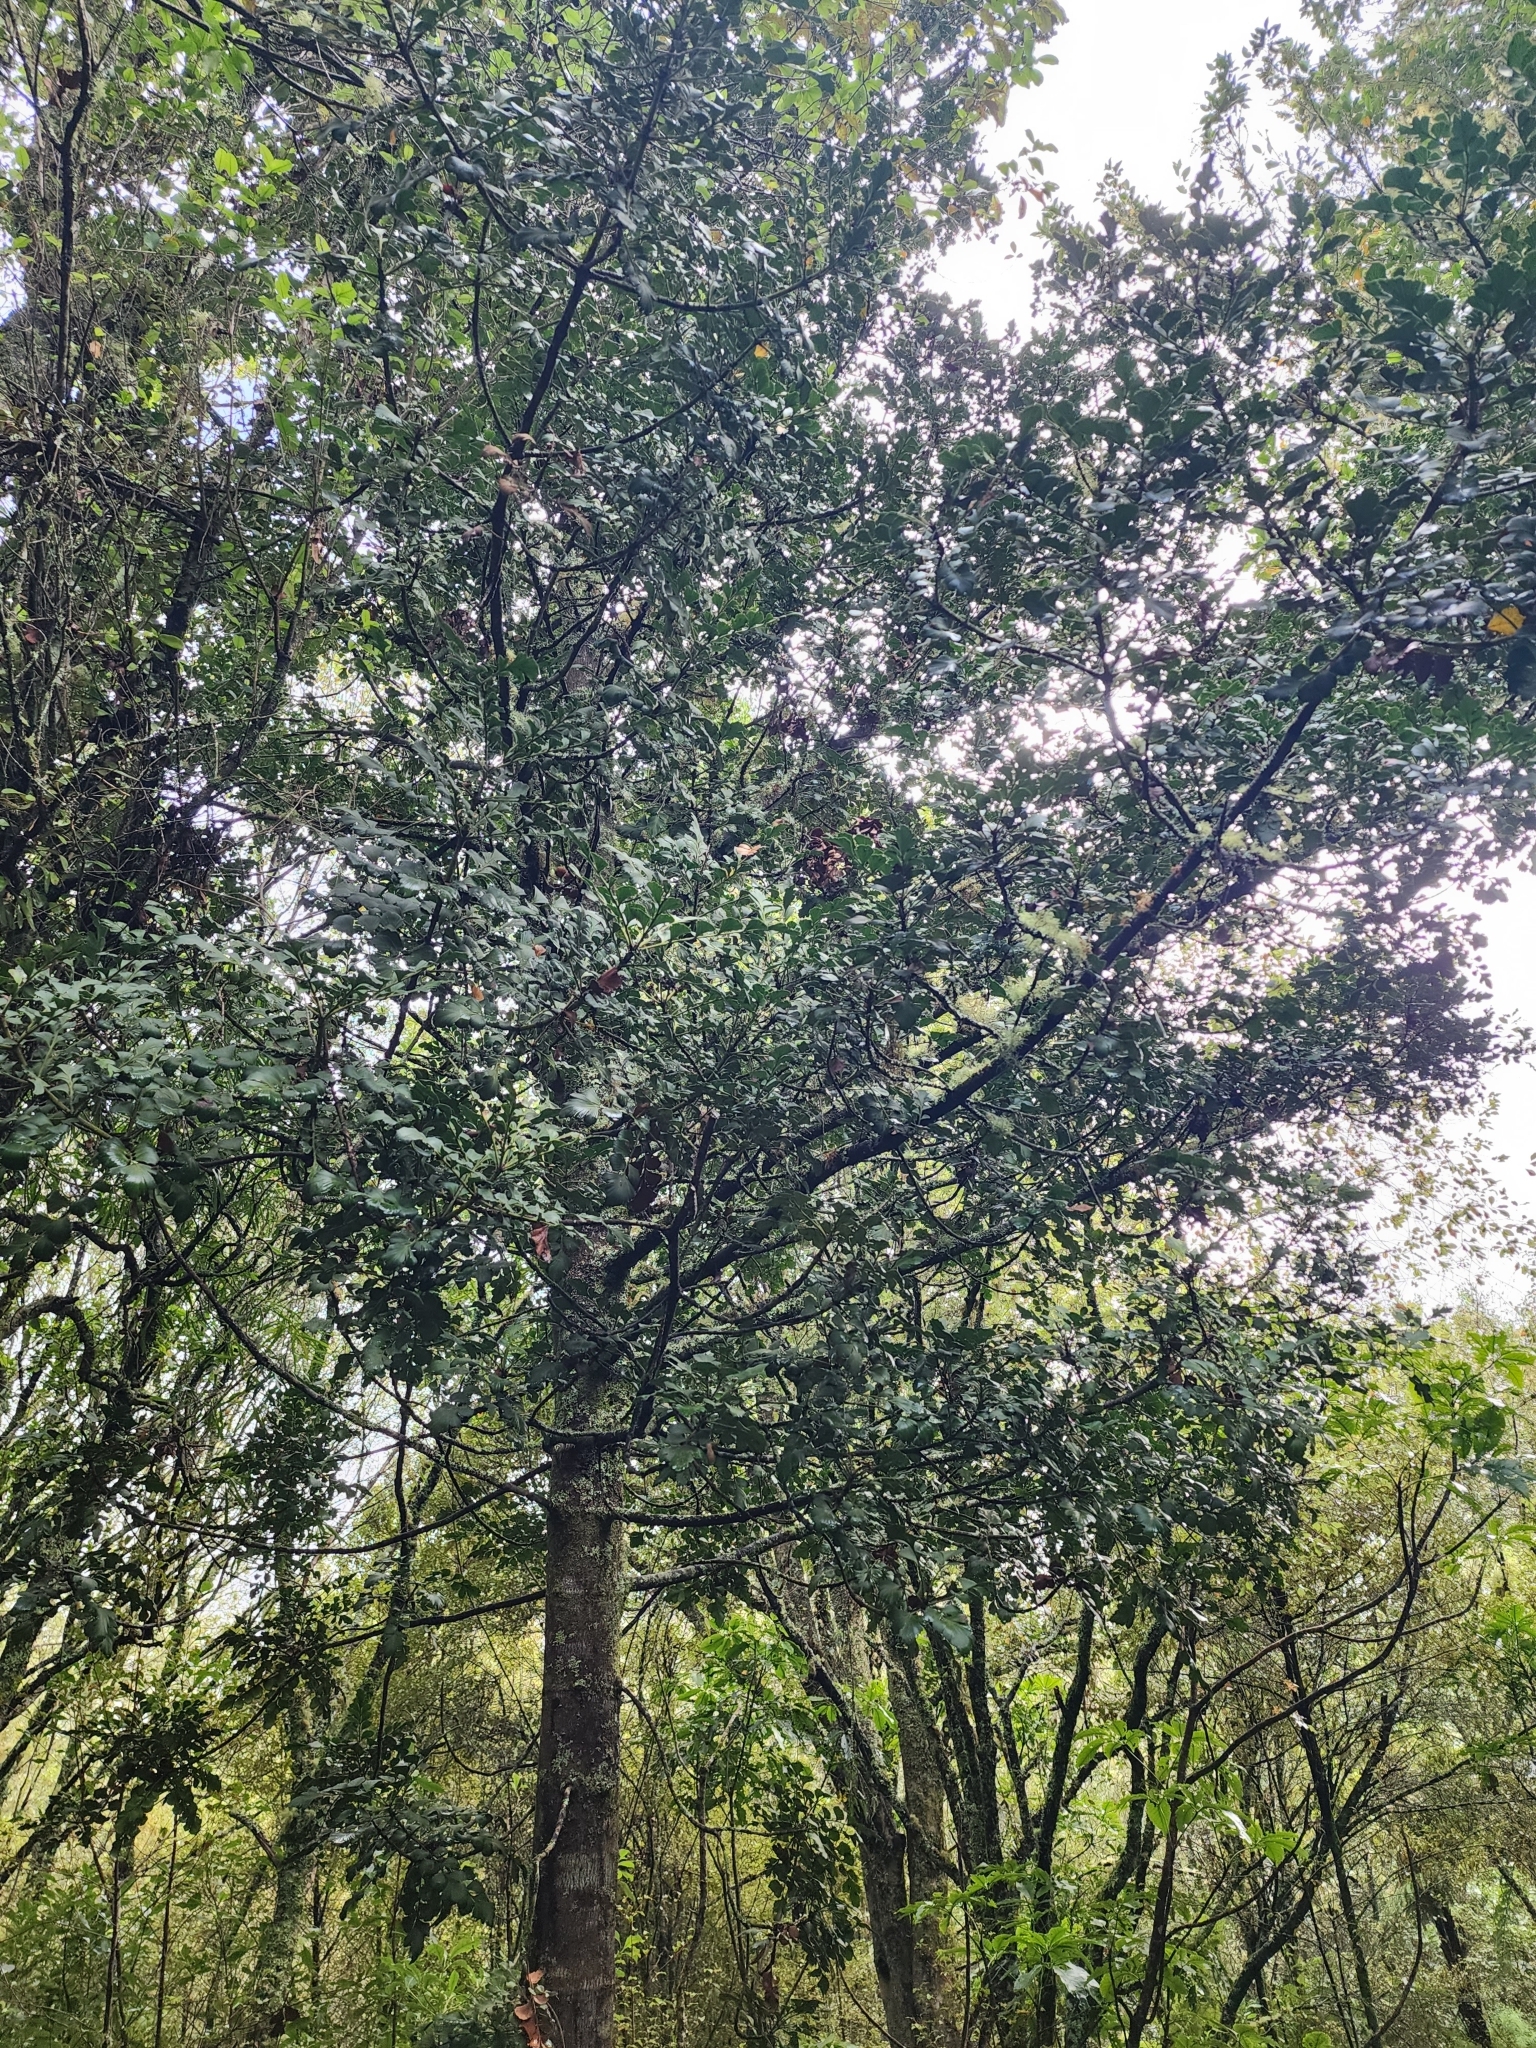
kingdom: Plantae
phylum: Tracheophyta
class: Pinopsida
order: Pinales
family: Phyllocladaceae
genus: Phyllocladus
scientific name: Phyllocladus toatoa
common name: Celery-top pine
